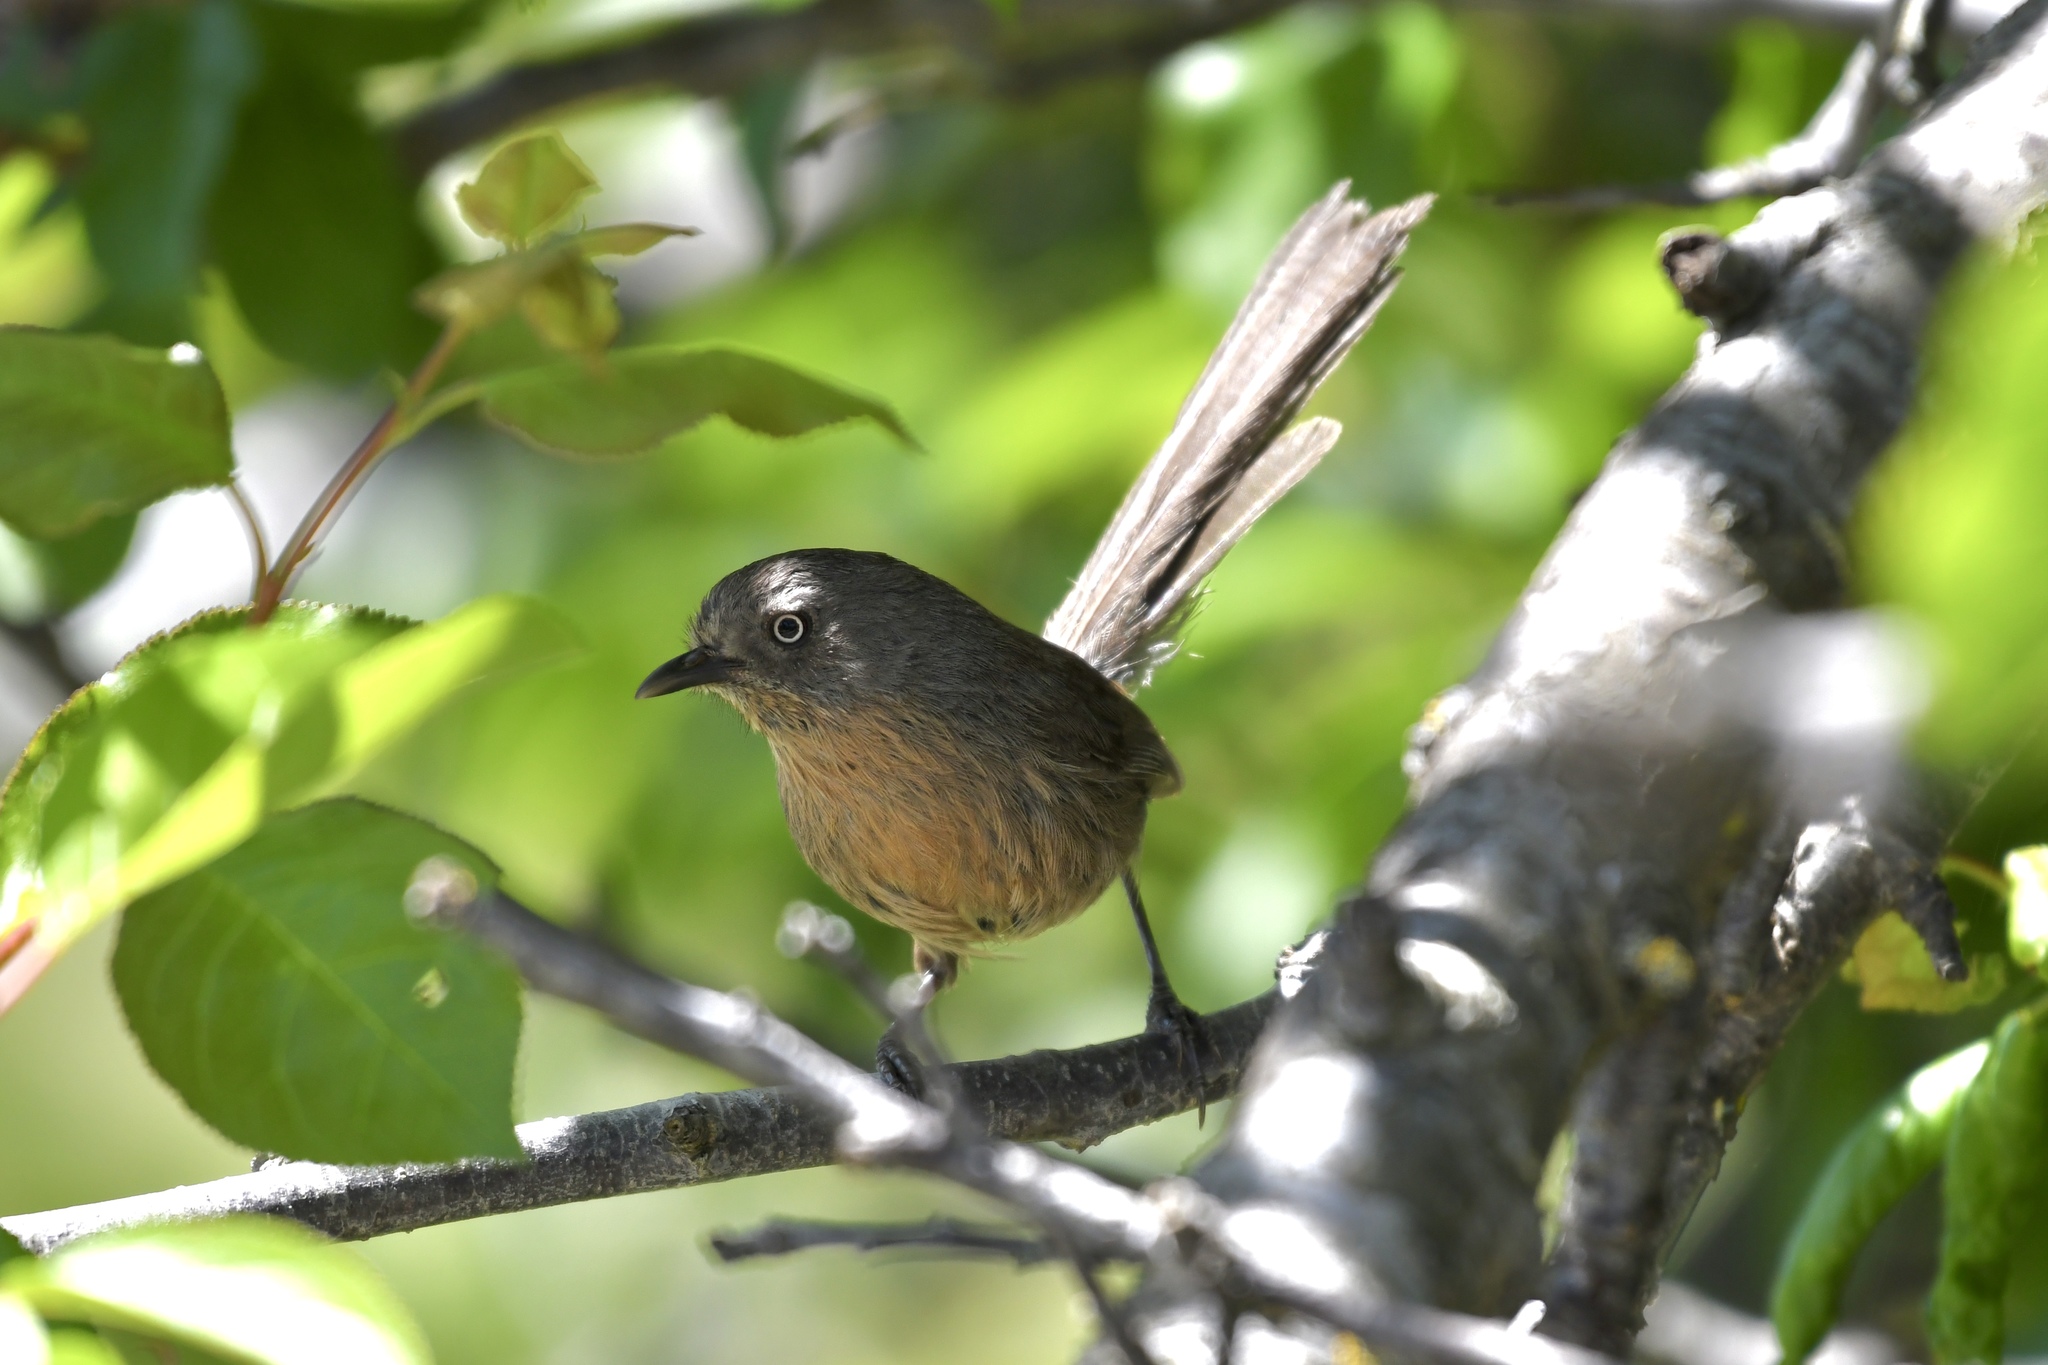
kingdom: Animalia
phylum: Chordata
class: Aves
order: Passeriformes
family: Sylviidae
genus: Chamaea
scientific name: Chamaea fasciata
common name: Wrentit
